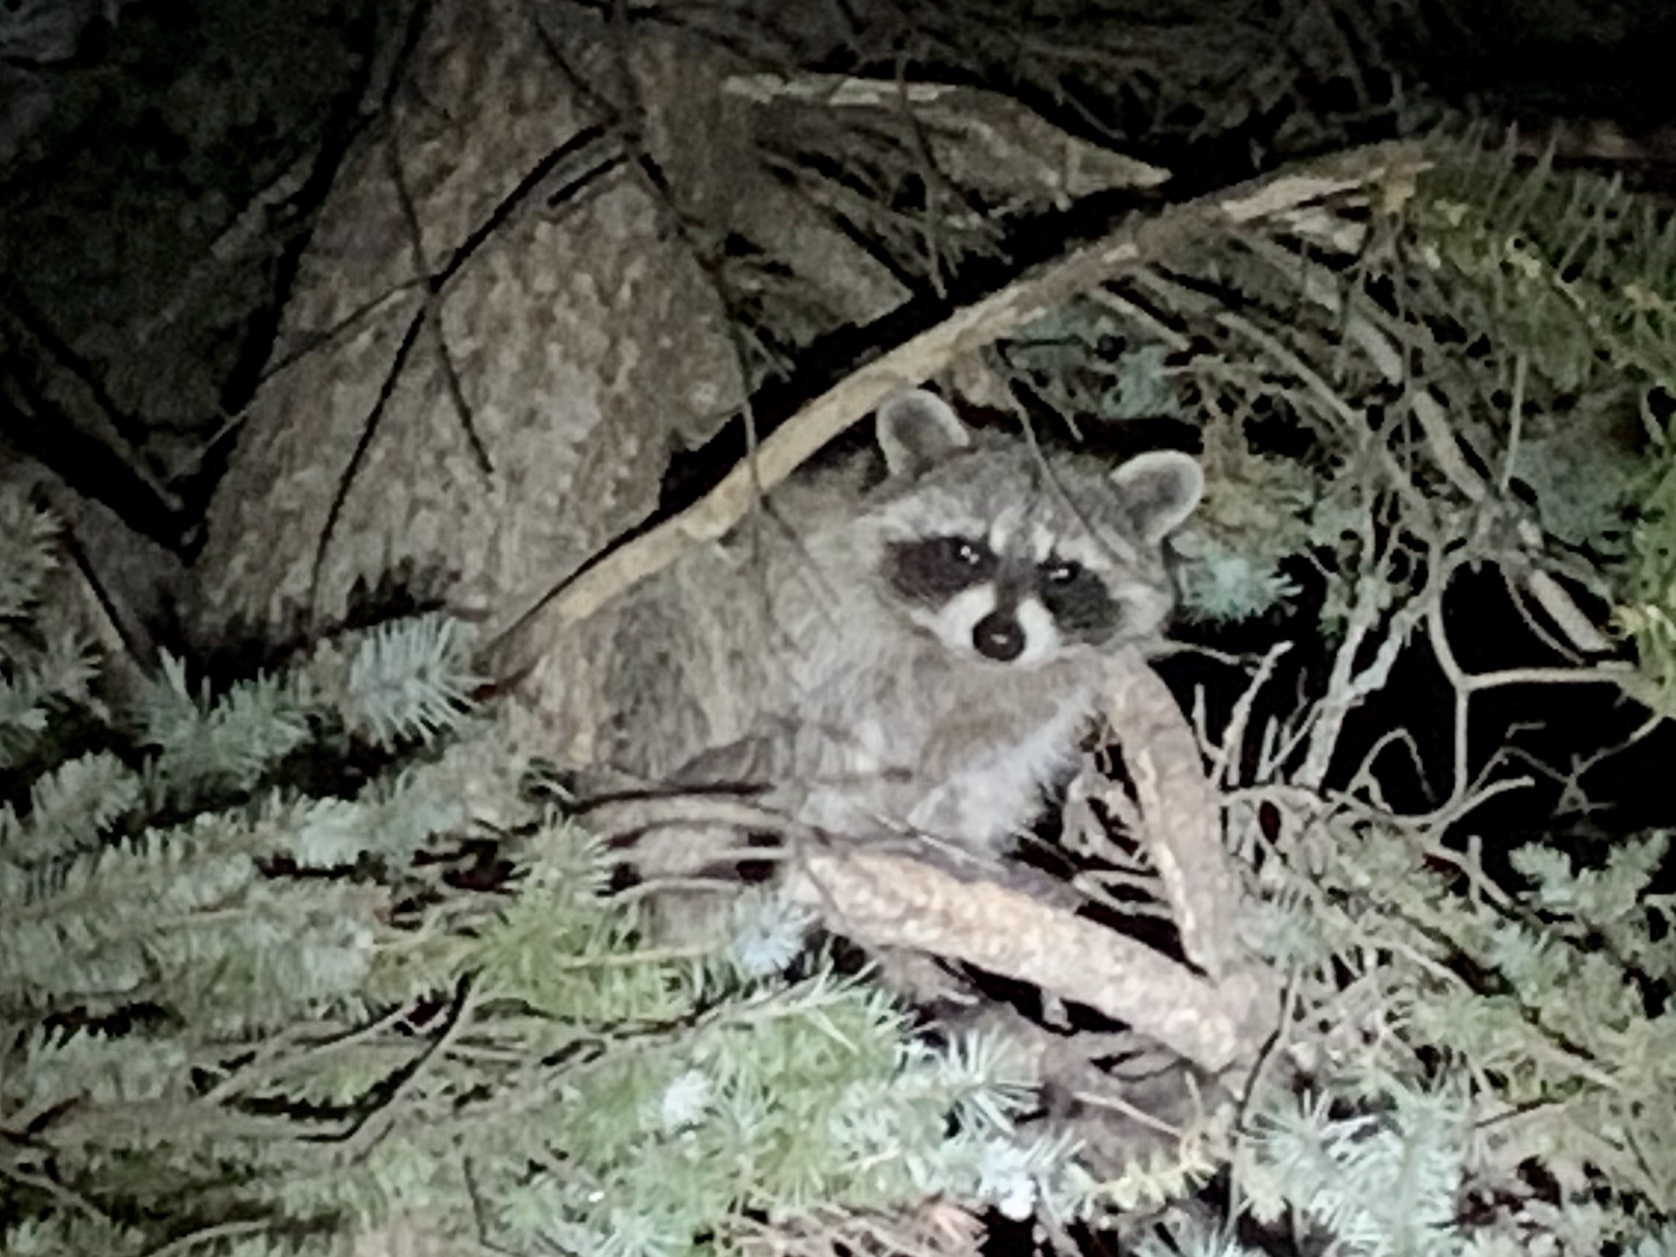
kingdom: Animalia
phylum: Chordata
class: Mammalia
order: Carnivora
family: Procyonidae
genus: Procyon
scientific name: Procyon lotor
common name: Raccoon
